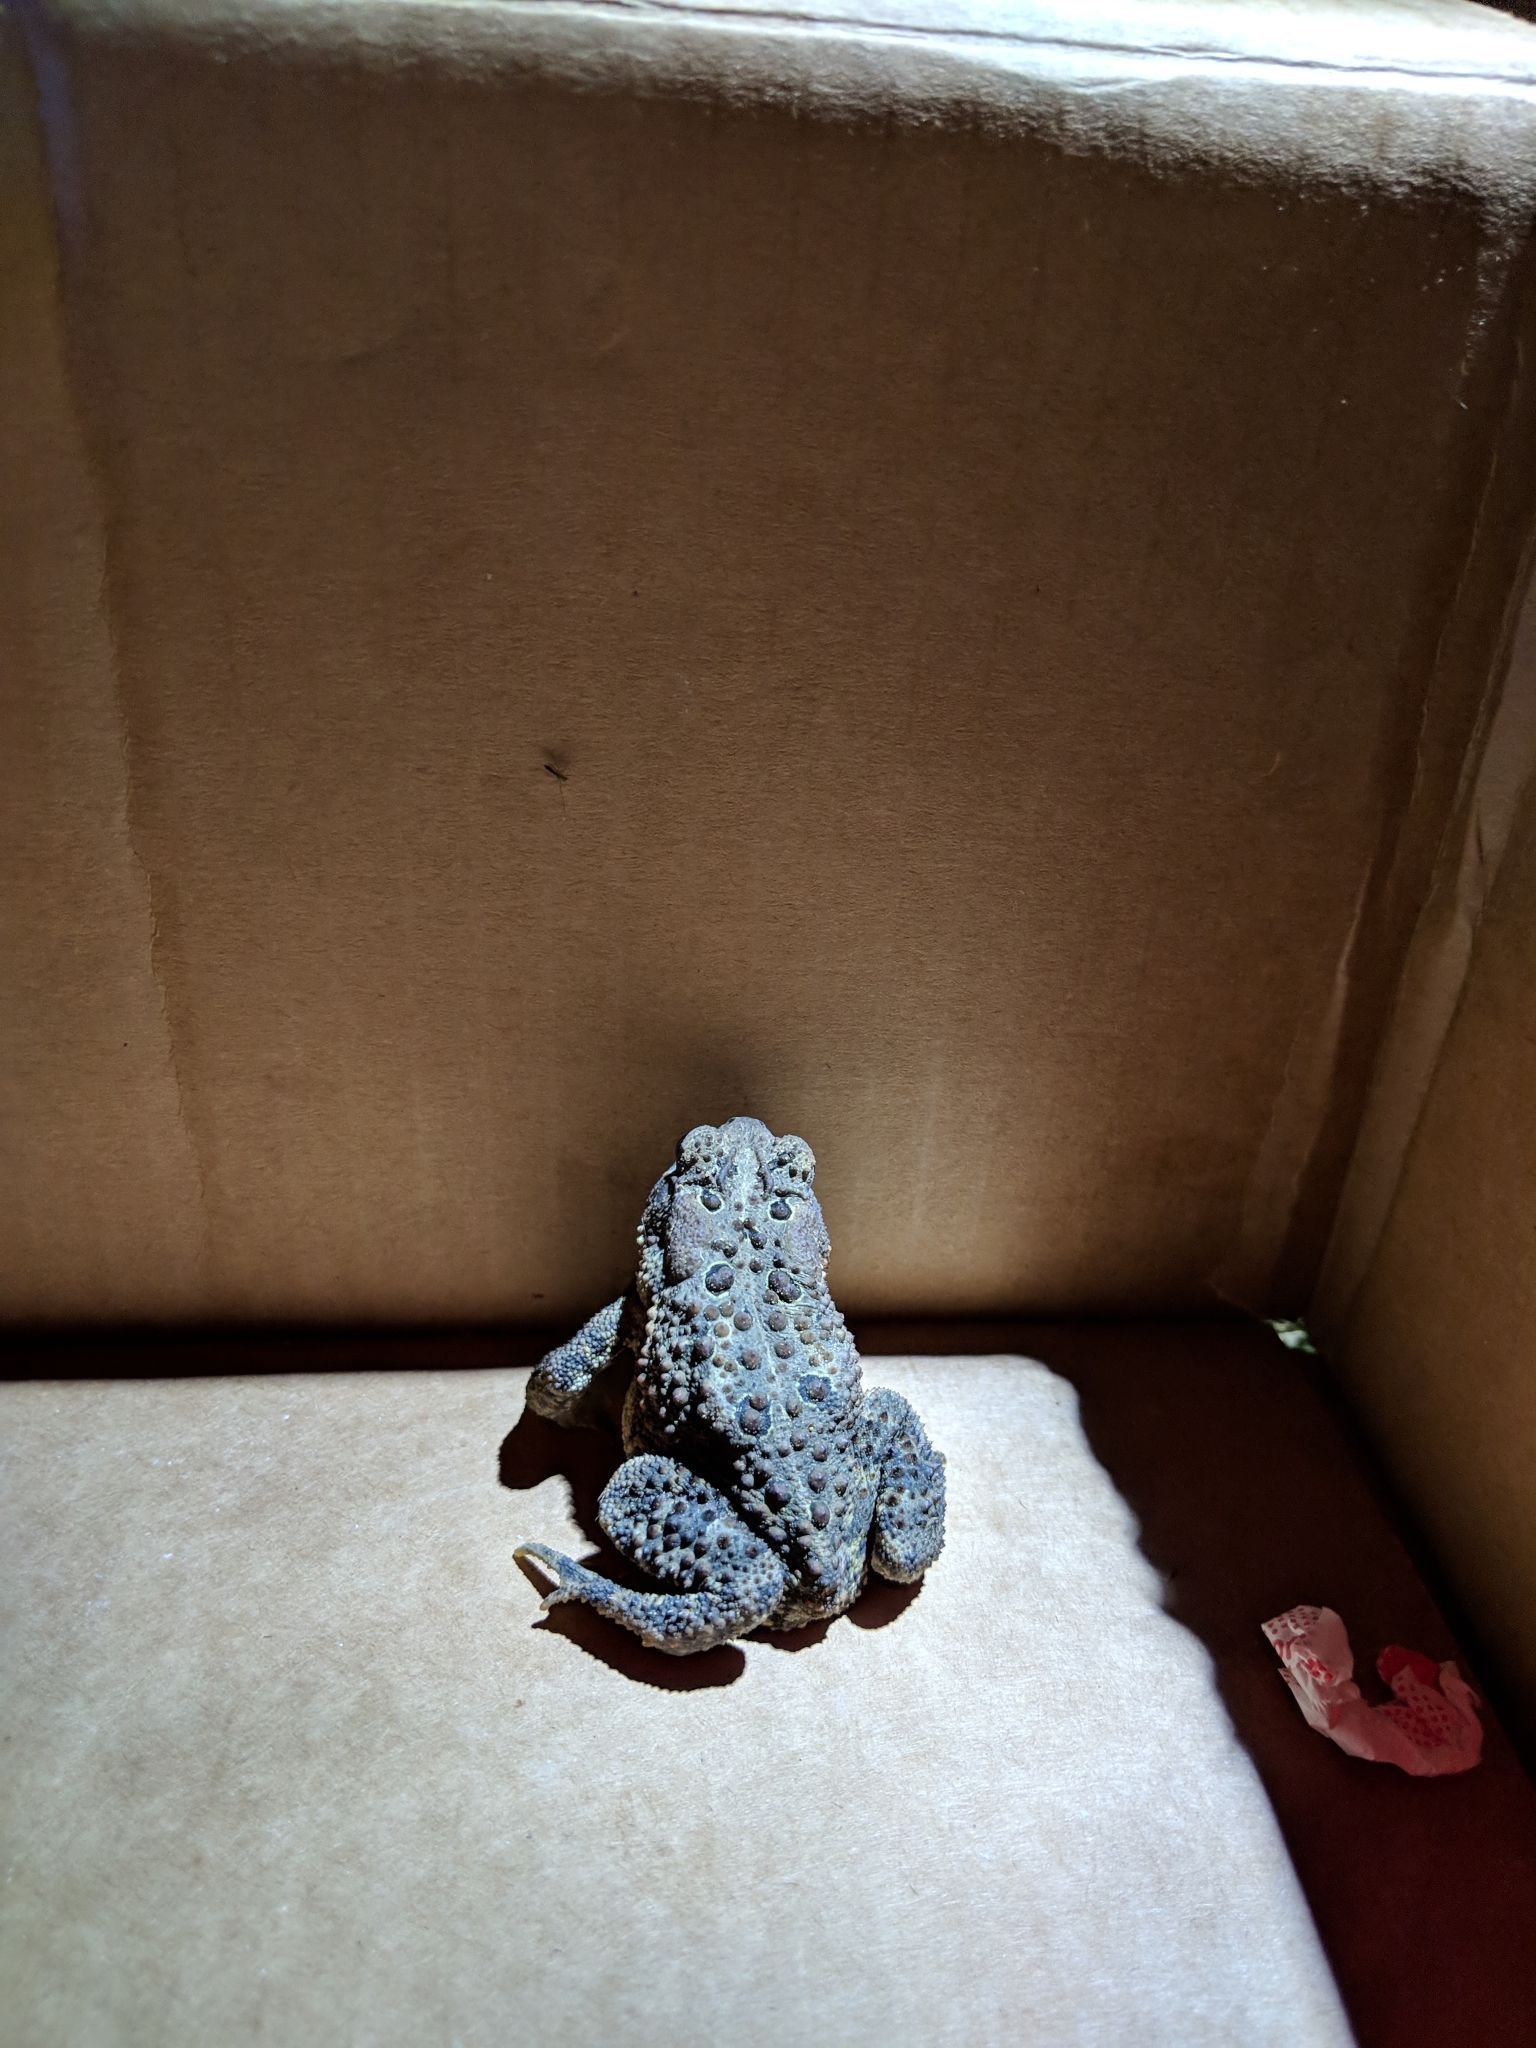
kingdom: Animalia
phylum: Chordata
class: Amphibia
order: Anura
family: Bufonidae
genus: Anaxyrus
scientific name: Anaxyrus americanus
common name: American toad
